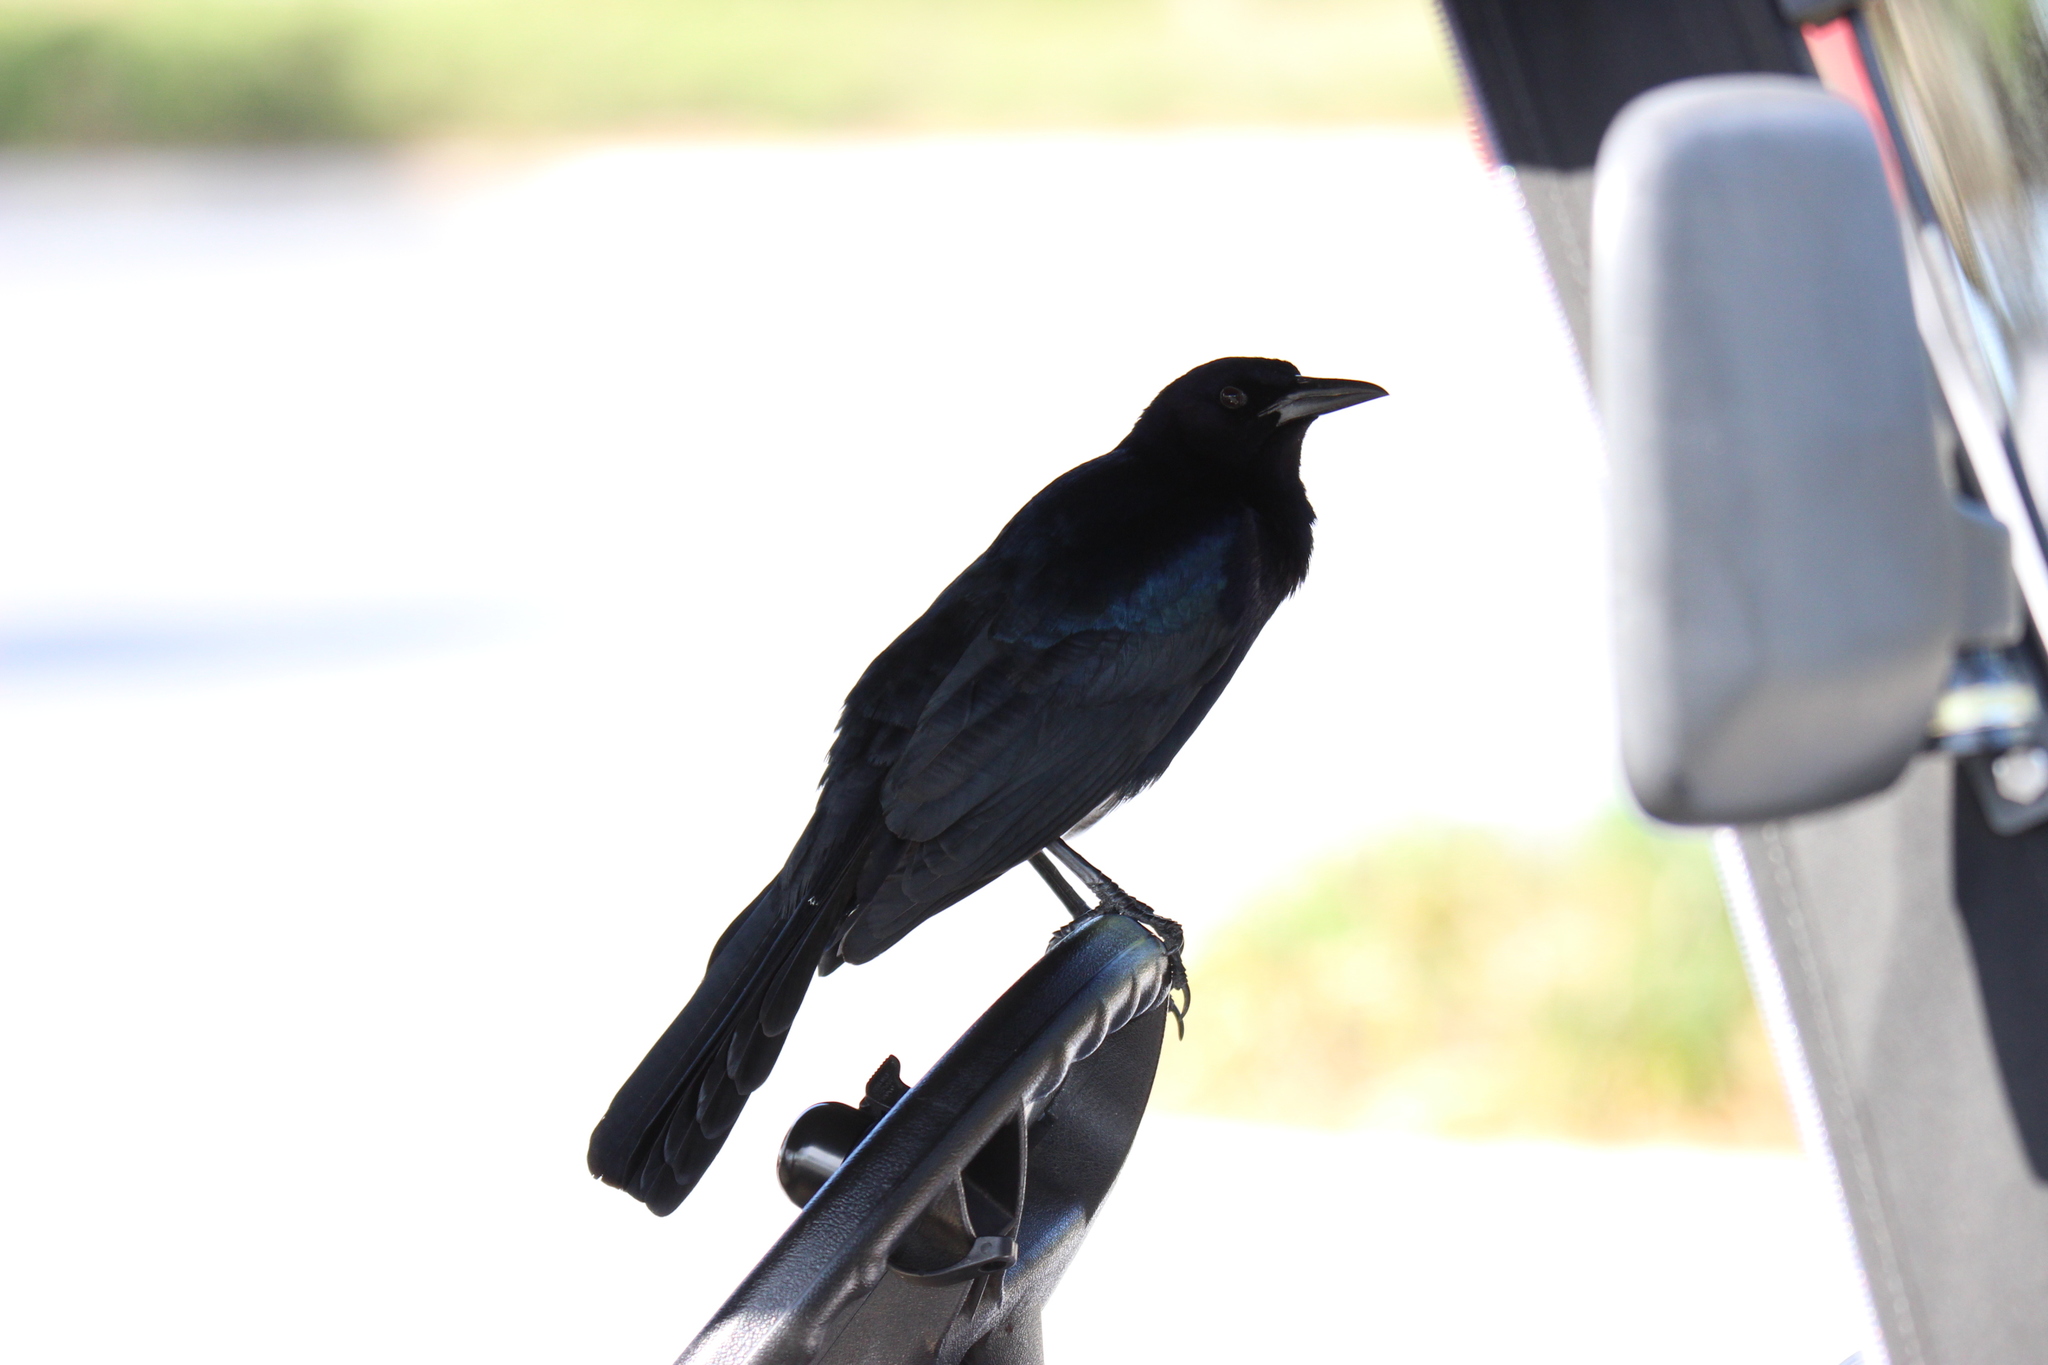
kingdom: Animalia
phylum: Chordata
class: Aves
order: Passeriformes
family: Icteridae
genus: Quiscalus
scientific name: Quiscalus major
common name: Boat-tailed grackle
